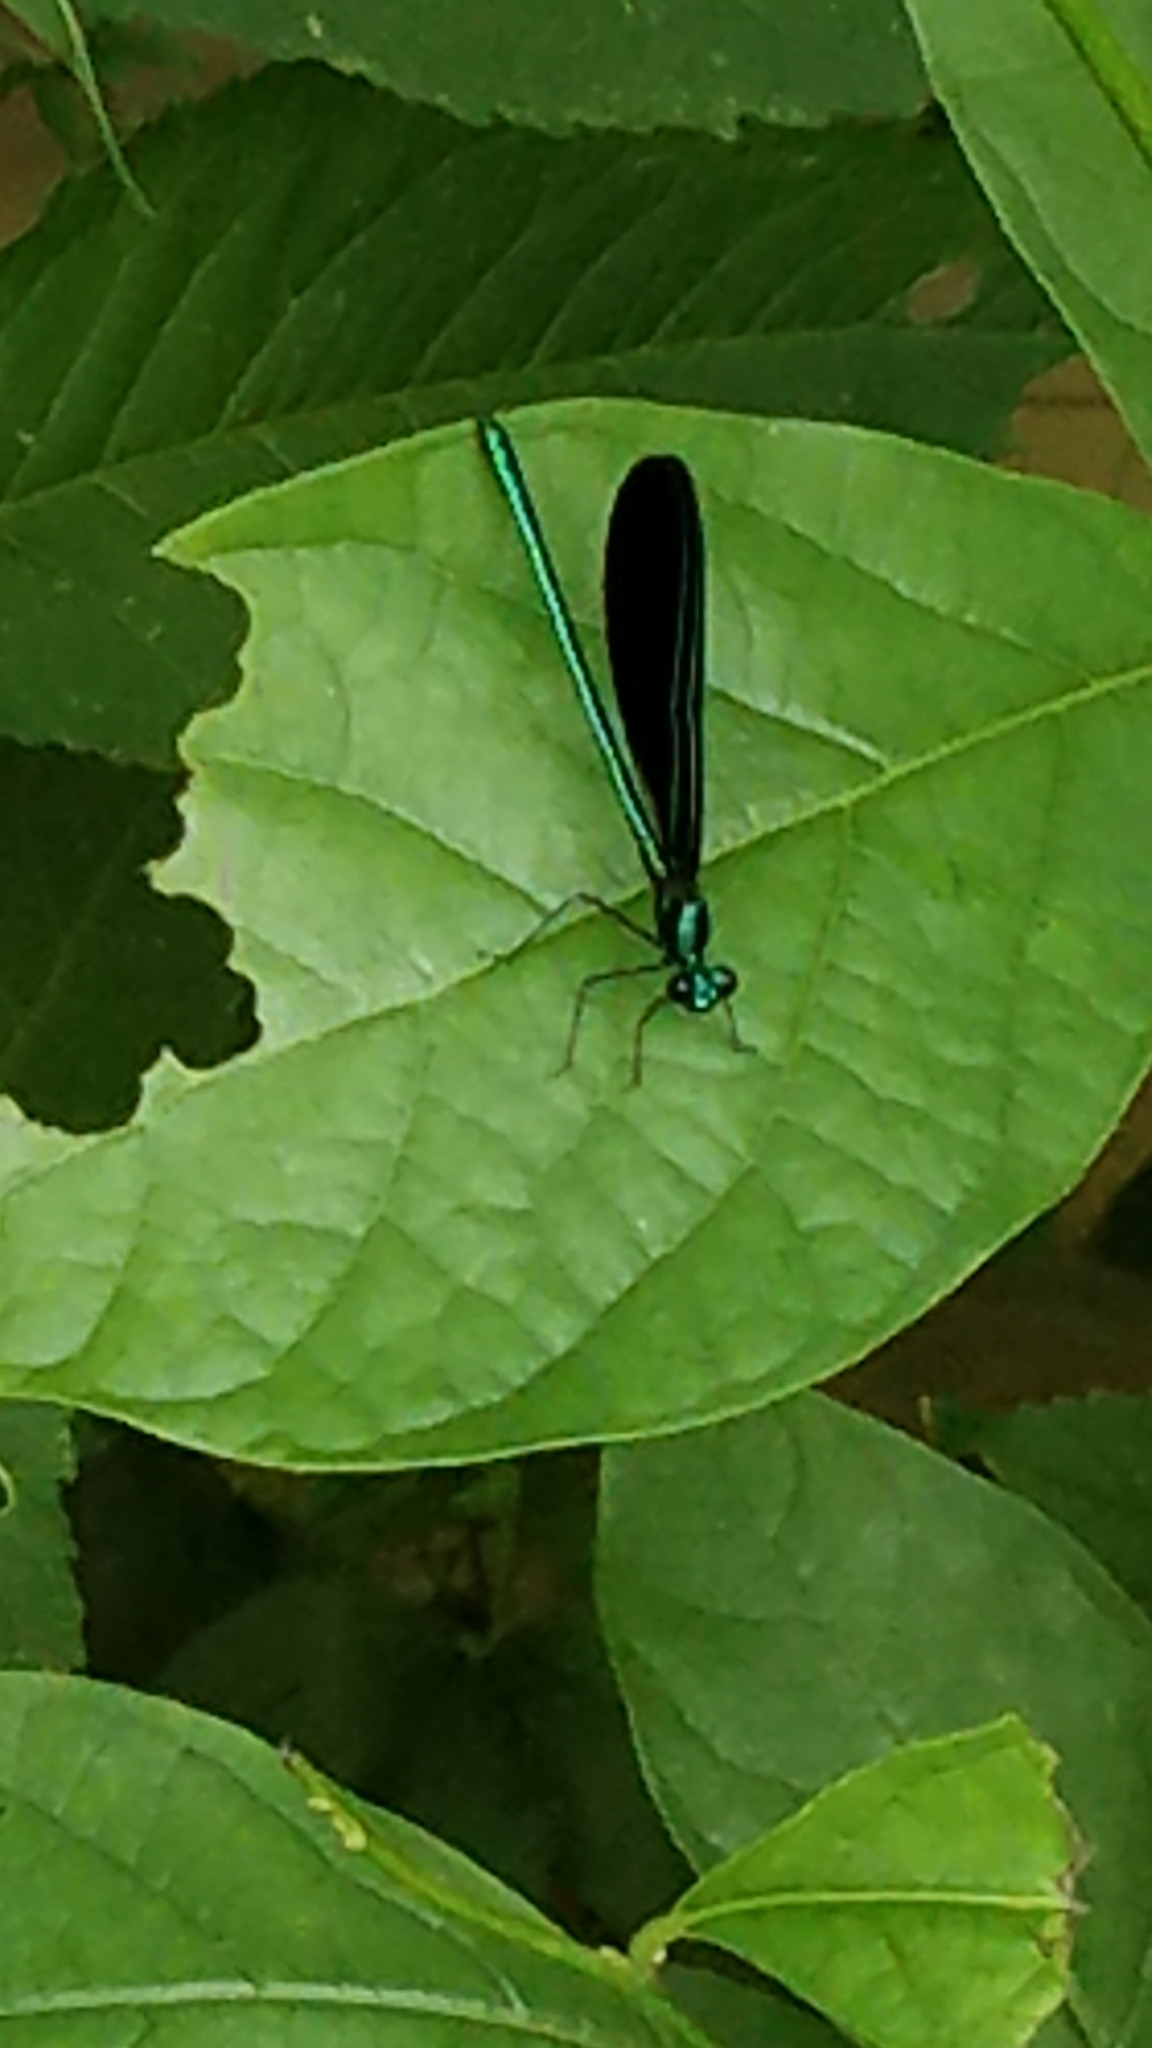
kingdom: Animalia
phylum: Arthropoda
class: Insecta
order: Odonata
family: Calopterygidae
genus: Calopteryx
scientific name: Calopteryx maculata
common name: Ebony jewelwing
